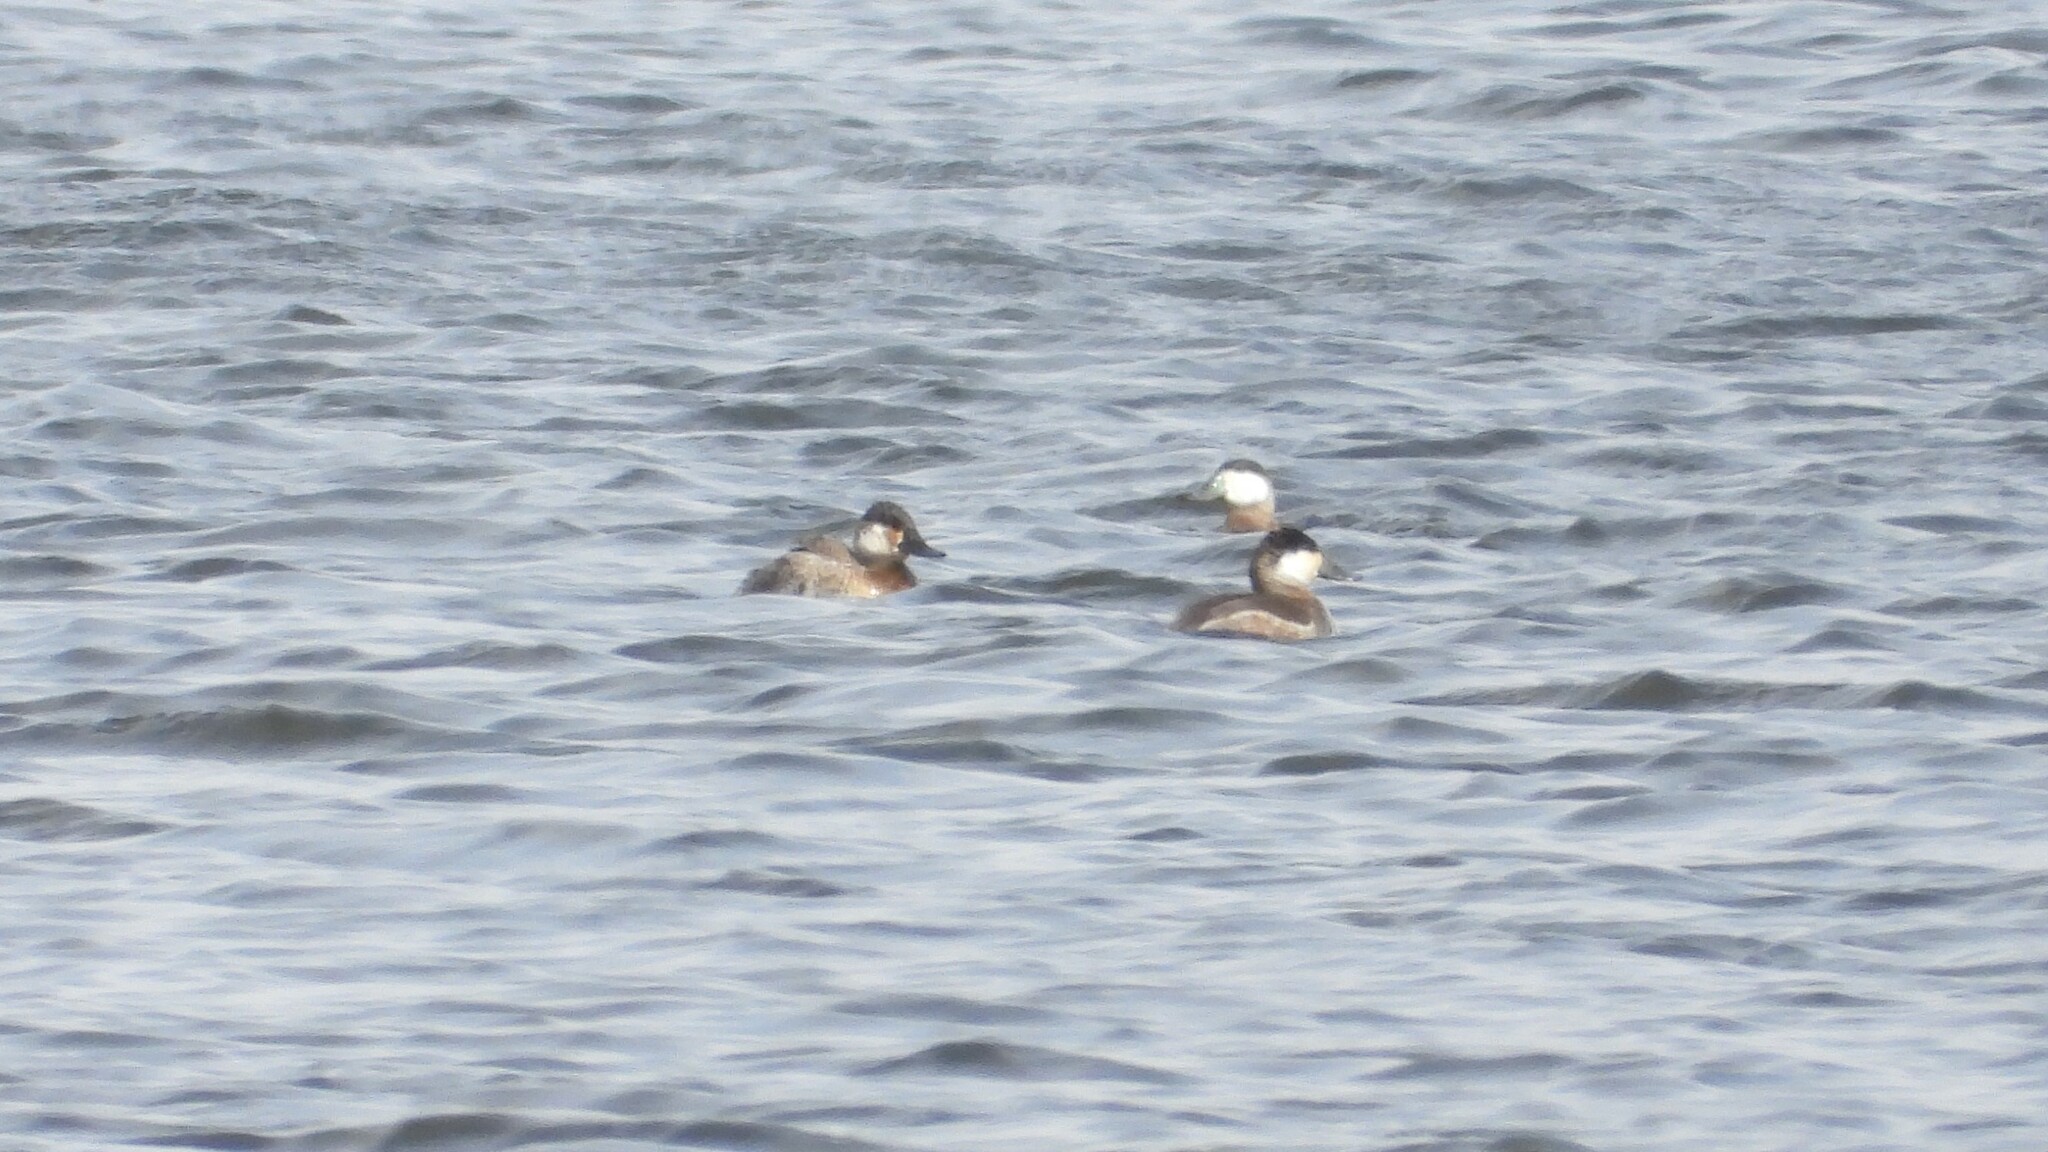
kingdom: Animalia
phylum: Chordata
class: Aves
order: Anseriformes
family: Anatidae
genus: Oxyura
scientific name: Oxyura jamaicensis
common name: Ruddy duck
